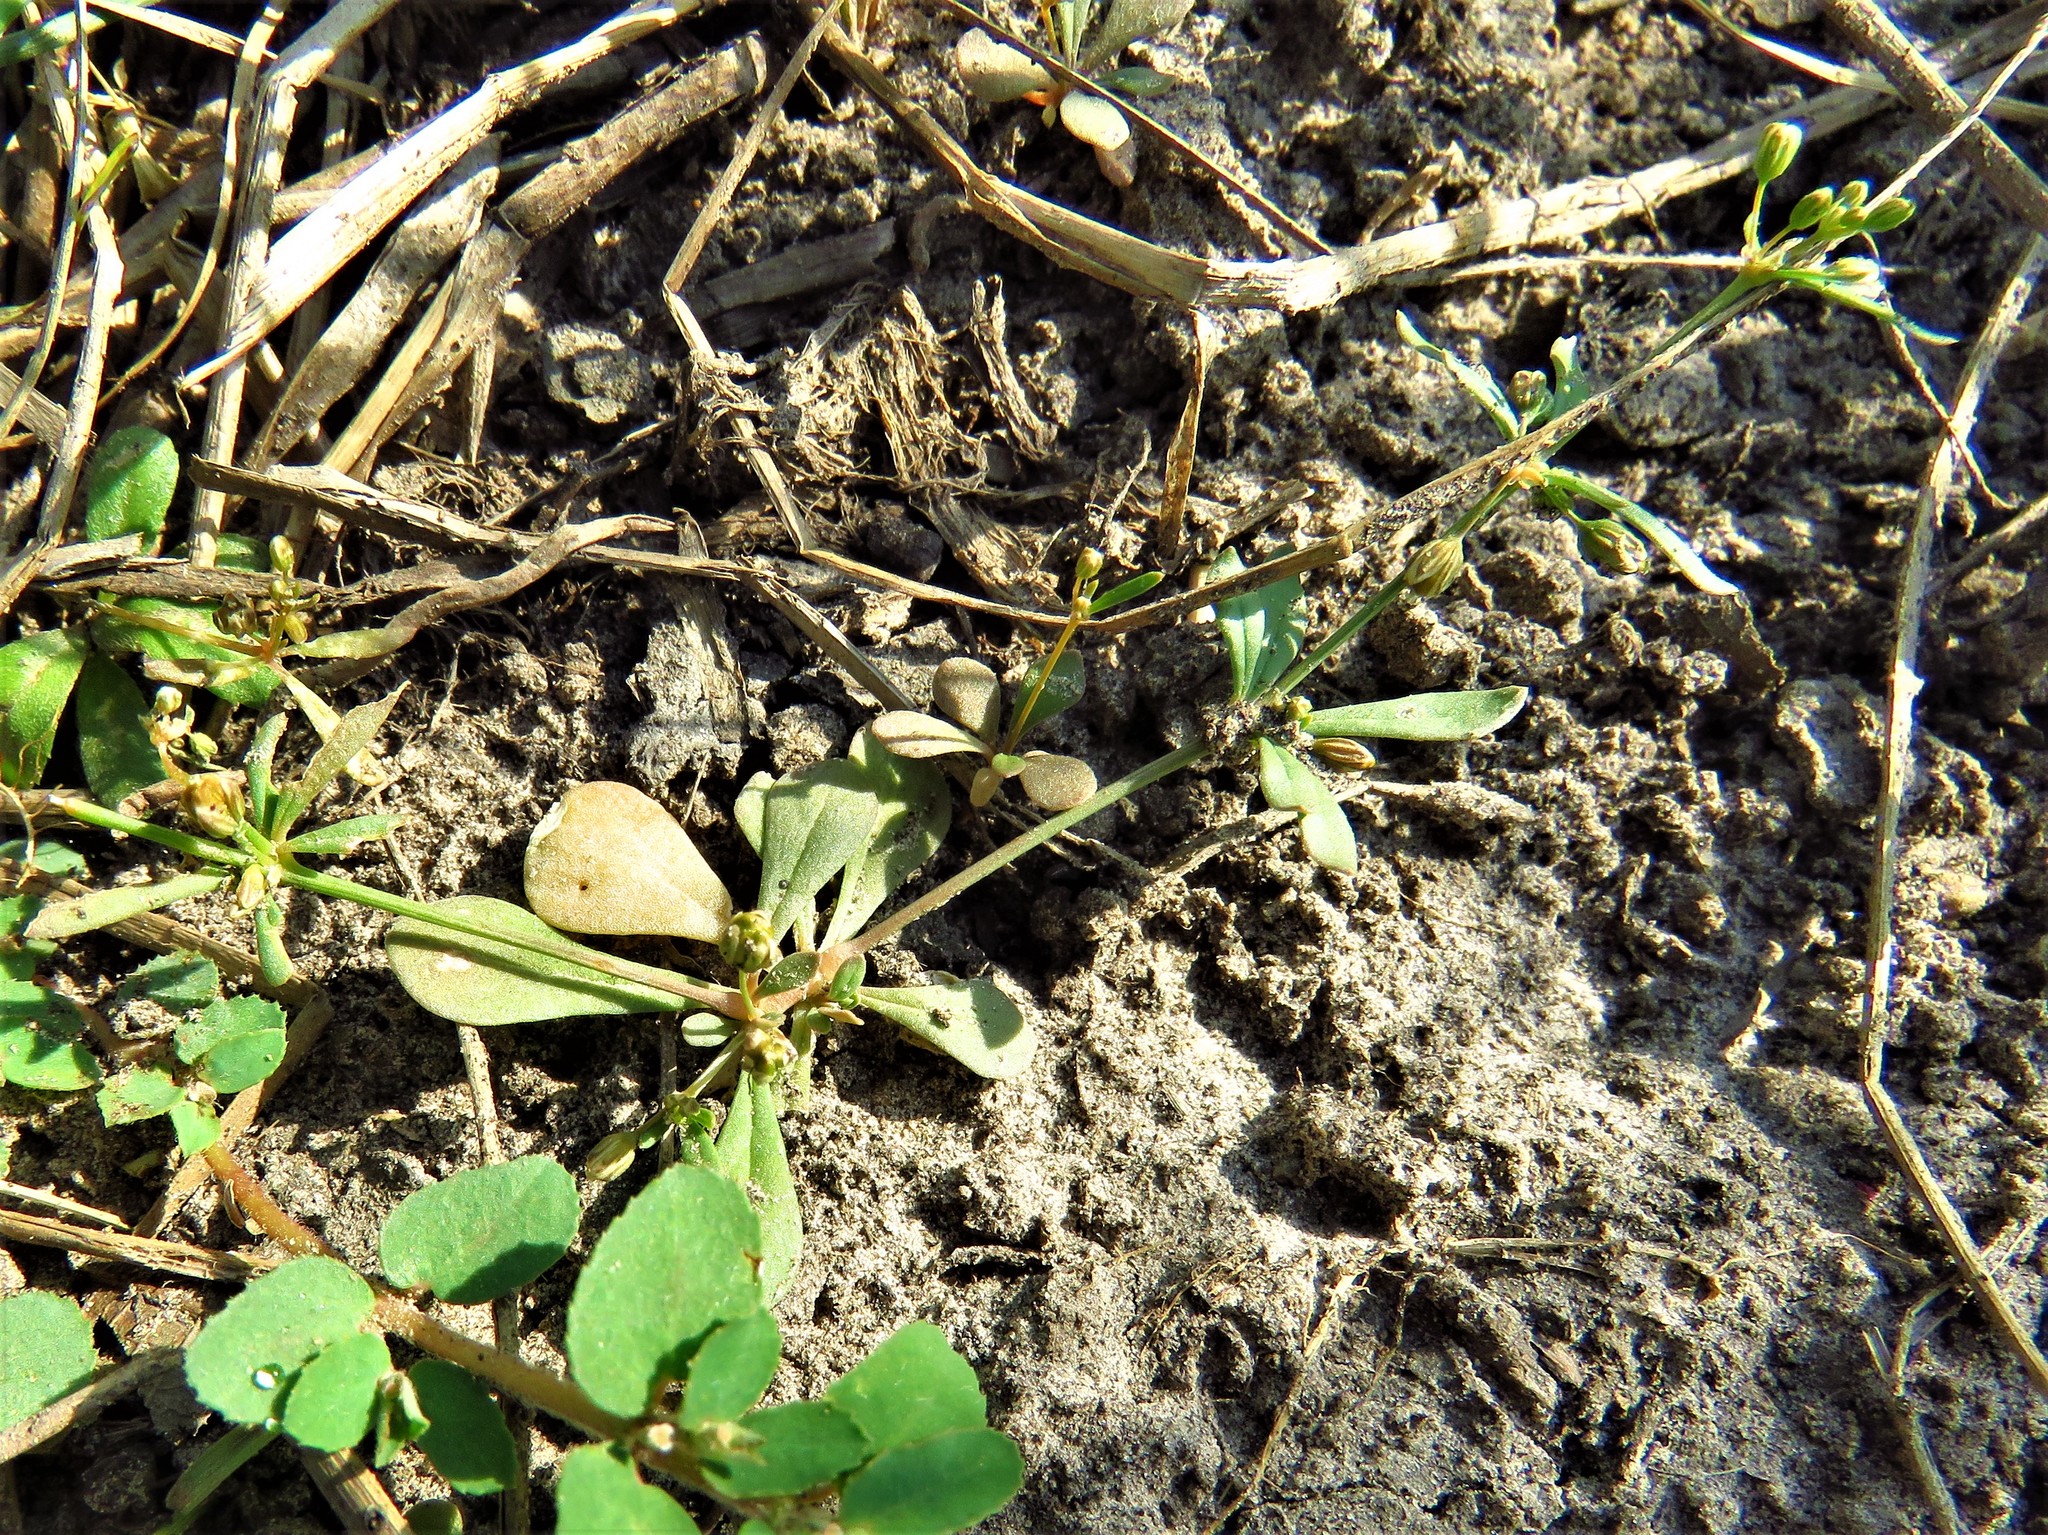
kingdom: Plantae
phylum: Tracheophyta
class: Magnoliopsida
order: Caryophyllales
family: Molluginaceae
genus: Mollugo
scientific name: Mollugo verticillata
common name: Green carpetweed
